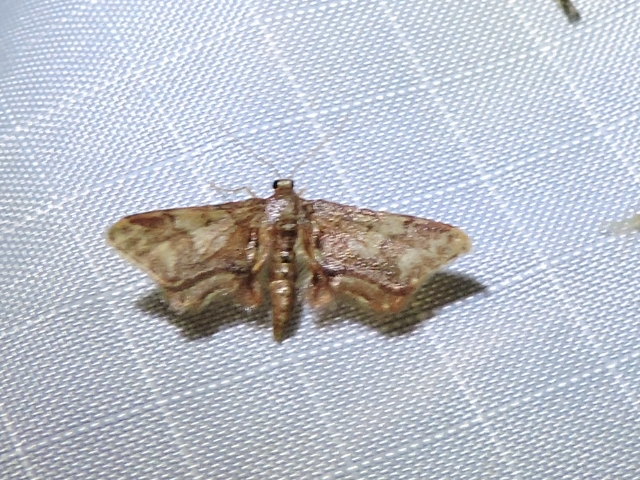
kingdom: Animalia
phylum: Arthropoda
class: Insecta
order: Lepidoptera
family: Geometridae
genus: Idaea
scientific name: Idaea furciferata
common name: Notch-winged wave
